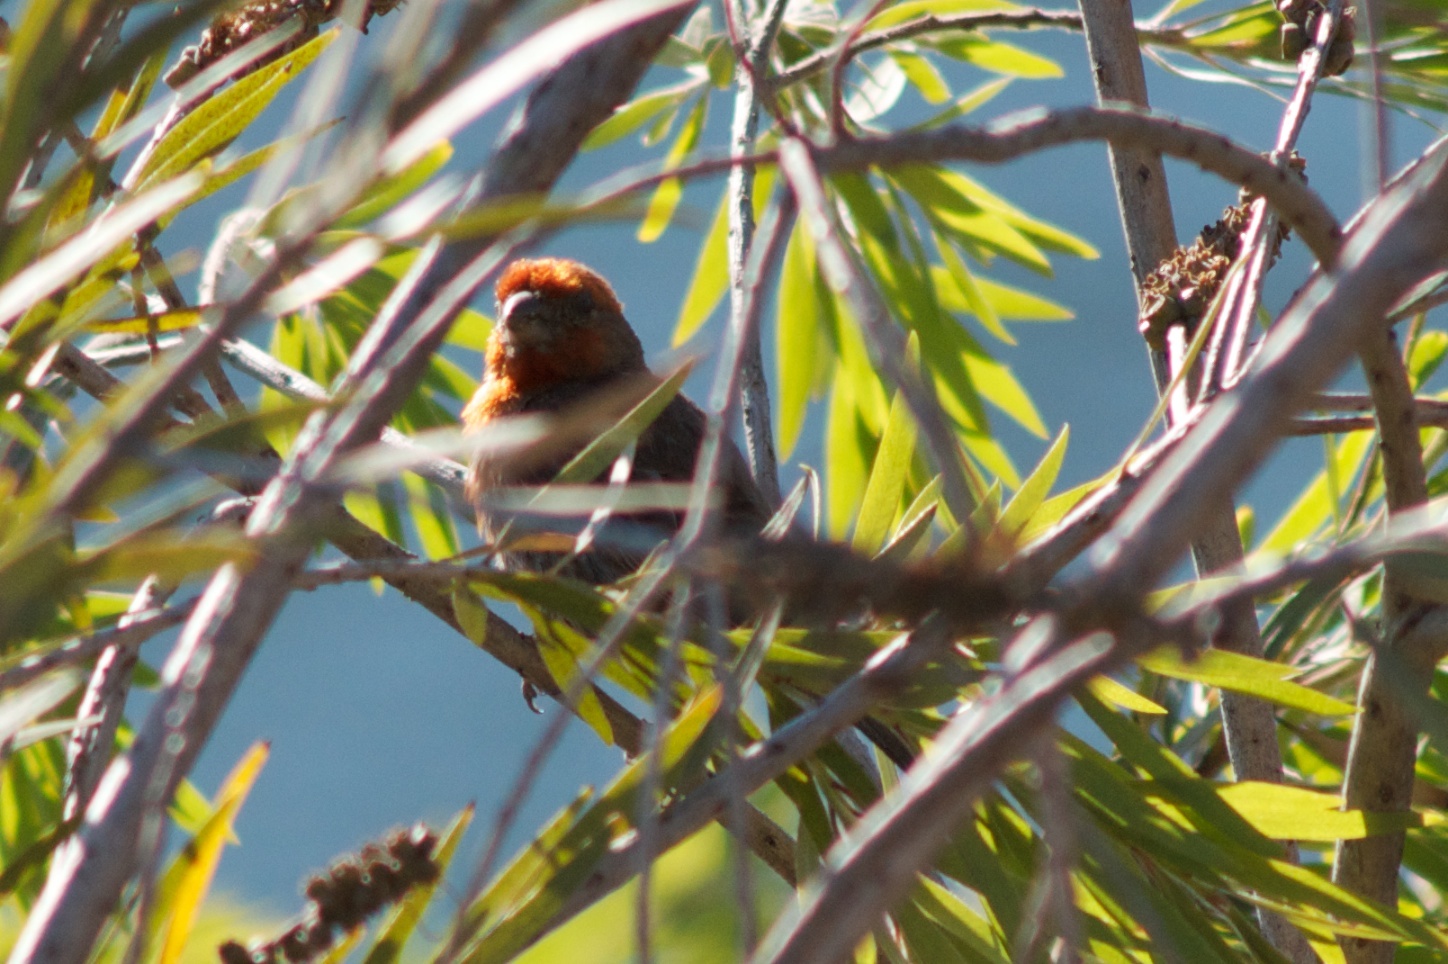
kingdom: Animalia
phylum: Chordata
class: Aves
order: Passeriformes
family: Fringillidae
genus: Haemorhous
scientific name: Haemorhous mexicanus
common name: House finch
